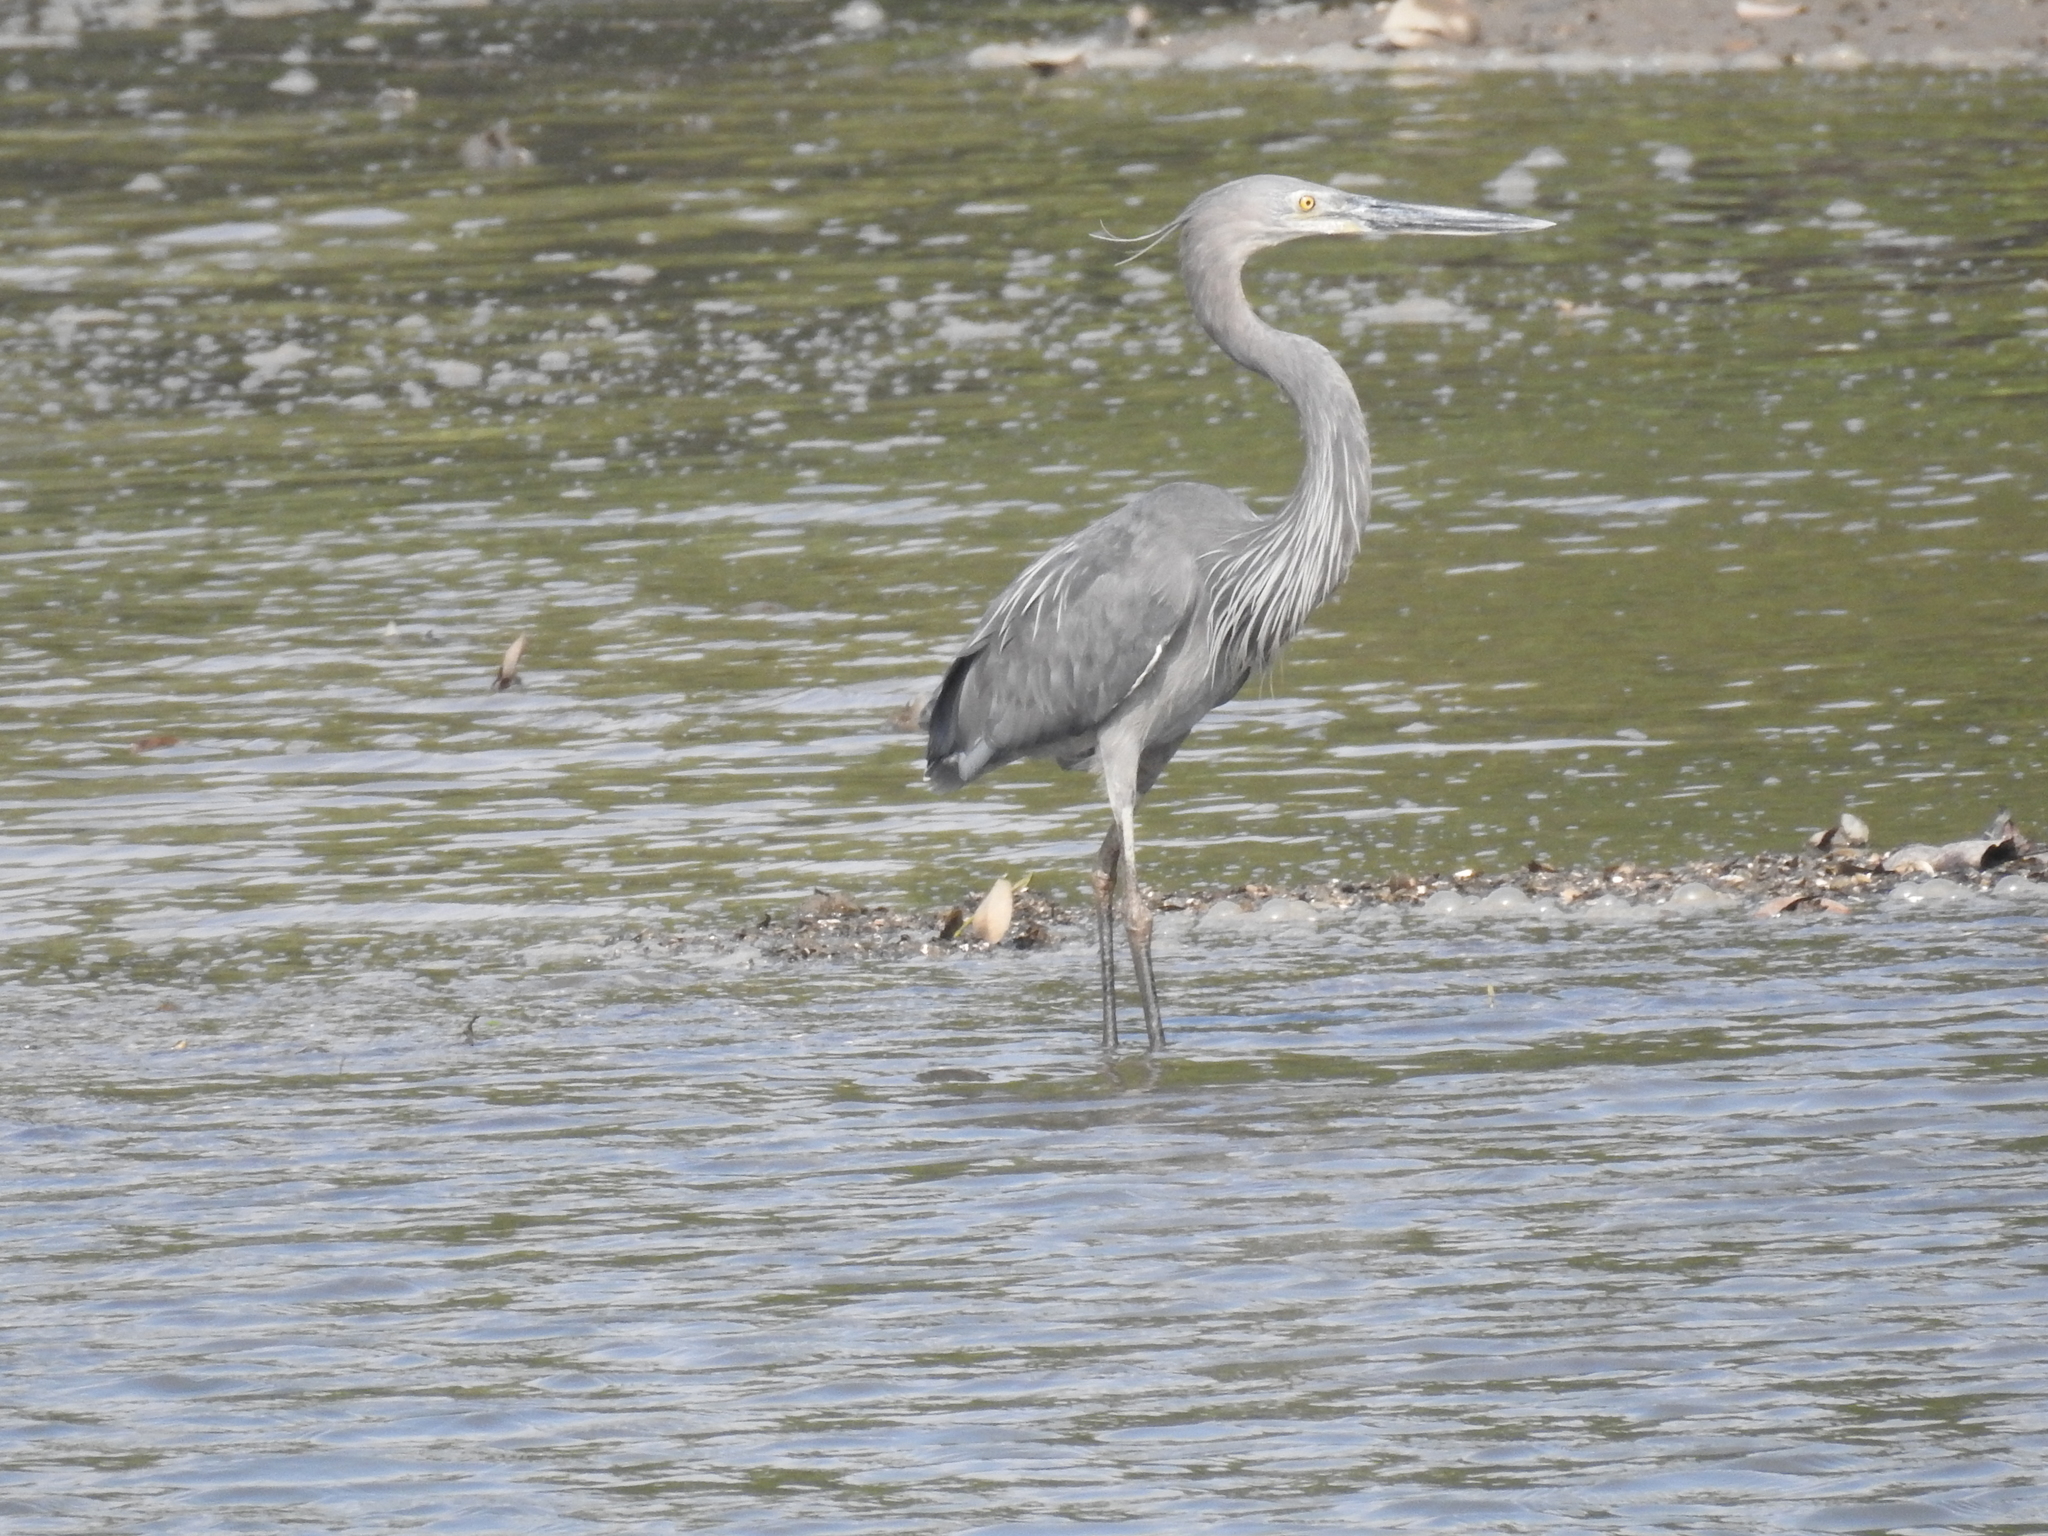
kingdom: Animalia
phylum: Chordata
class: Aves
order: Pelecaniformes
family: Ardeidae
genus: Ardea
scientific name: Ardea sumatrana
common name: Great-billed heron
